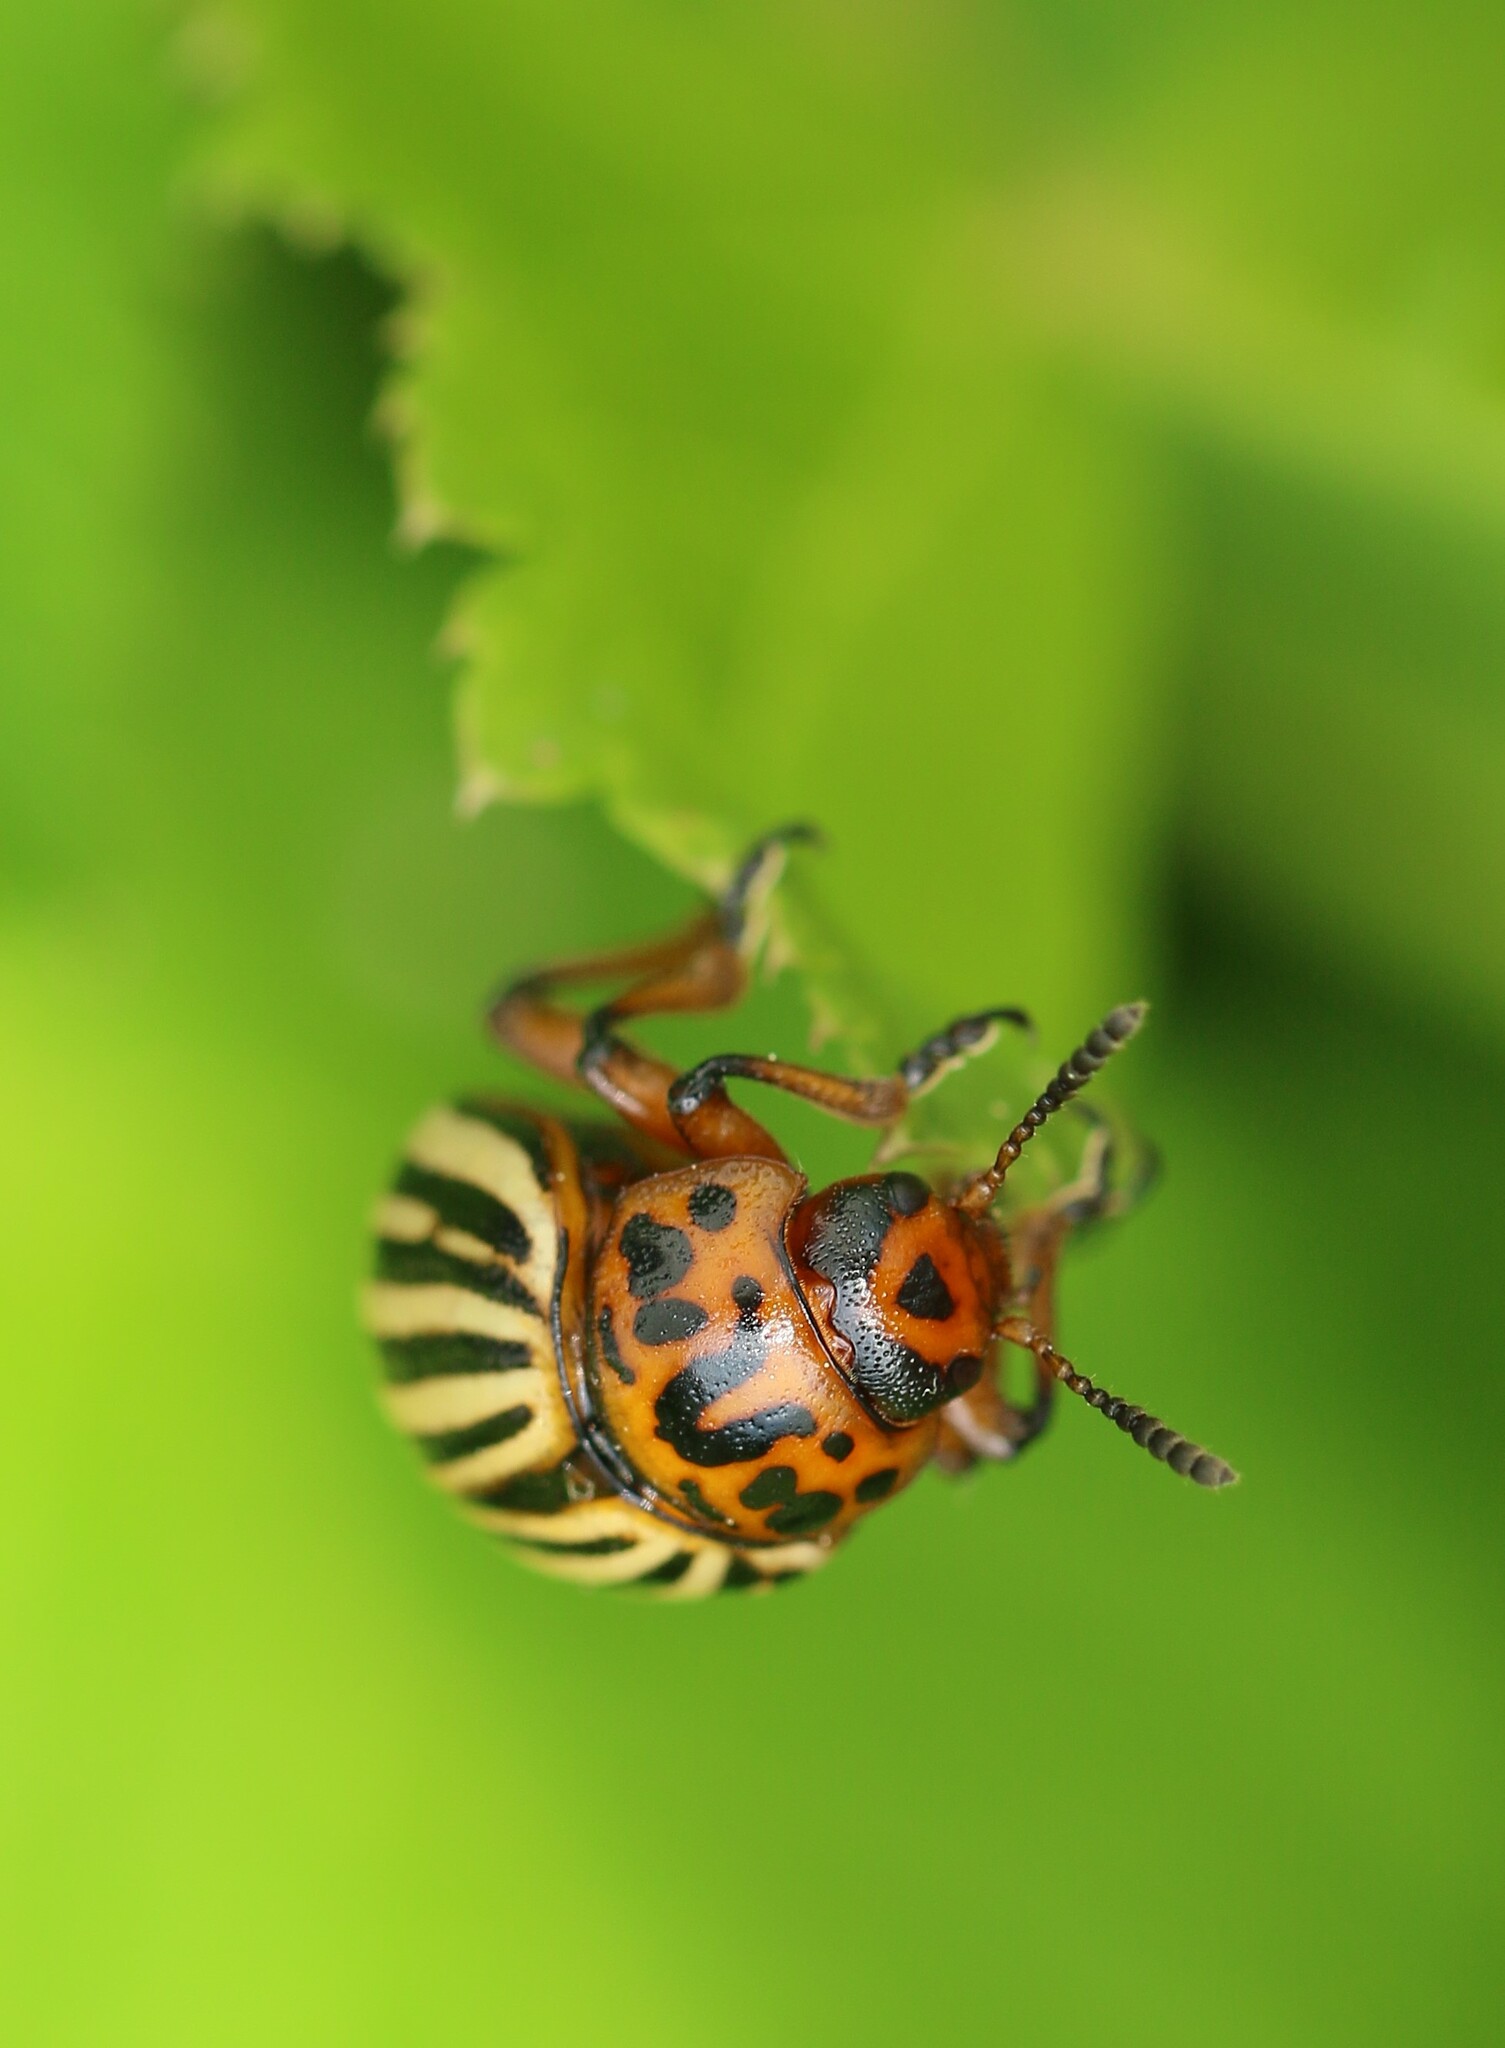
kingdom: Animalia
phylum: Arthropoda
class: Insecta
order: Coleoptera
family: Chrysomelidae
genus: Leptinotarsa
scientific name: Leptinotarsa decemlineata
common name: Colorado potato beetle
